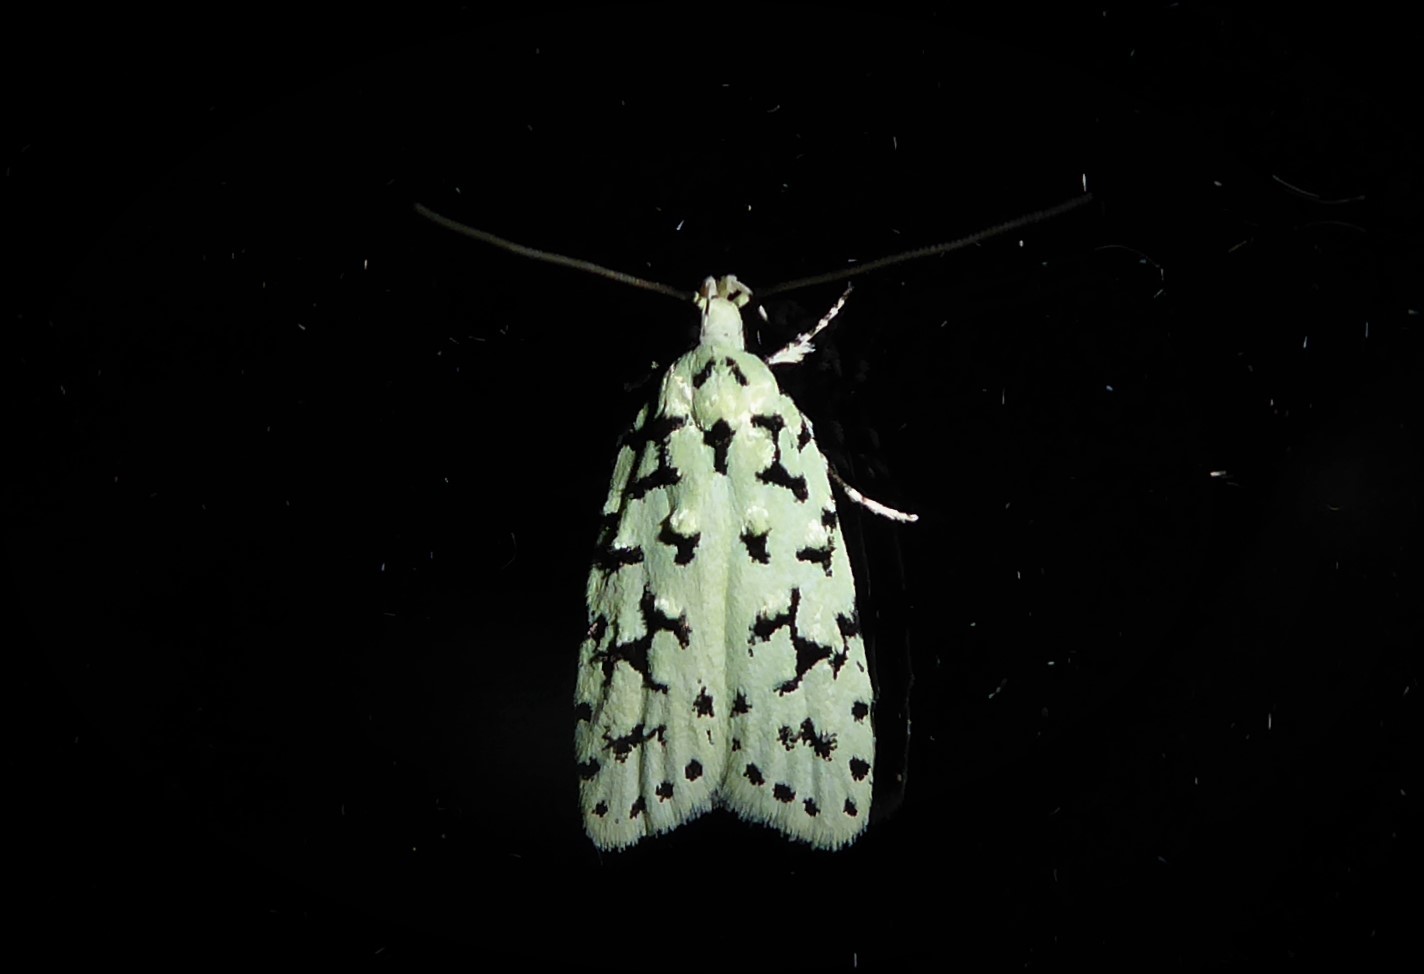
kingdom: Animalia
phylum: Arthropoda
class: Insecta
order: Lepidoptera
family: Oecophoridae
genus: Izatha
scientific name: Izatha huttoni
